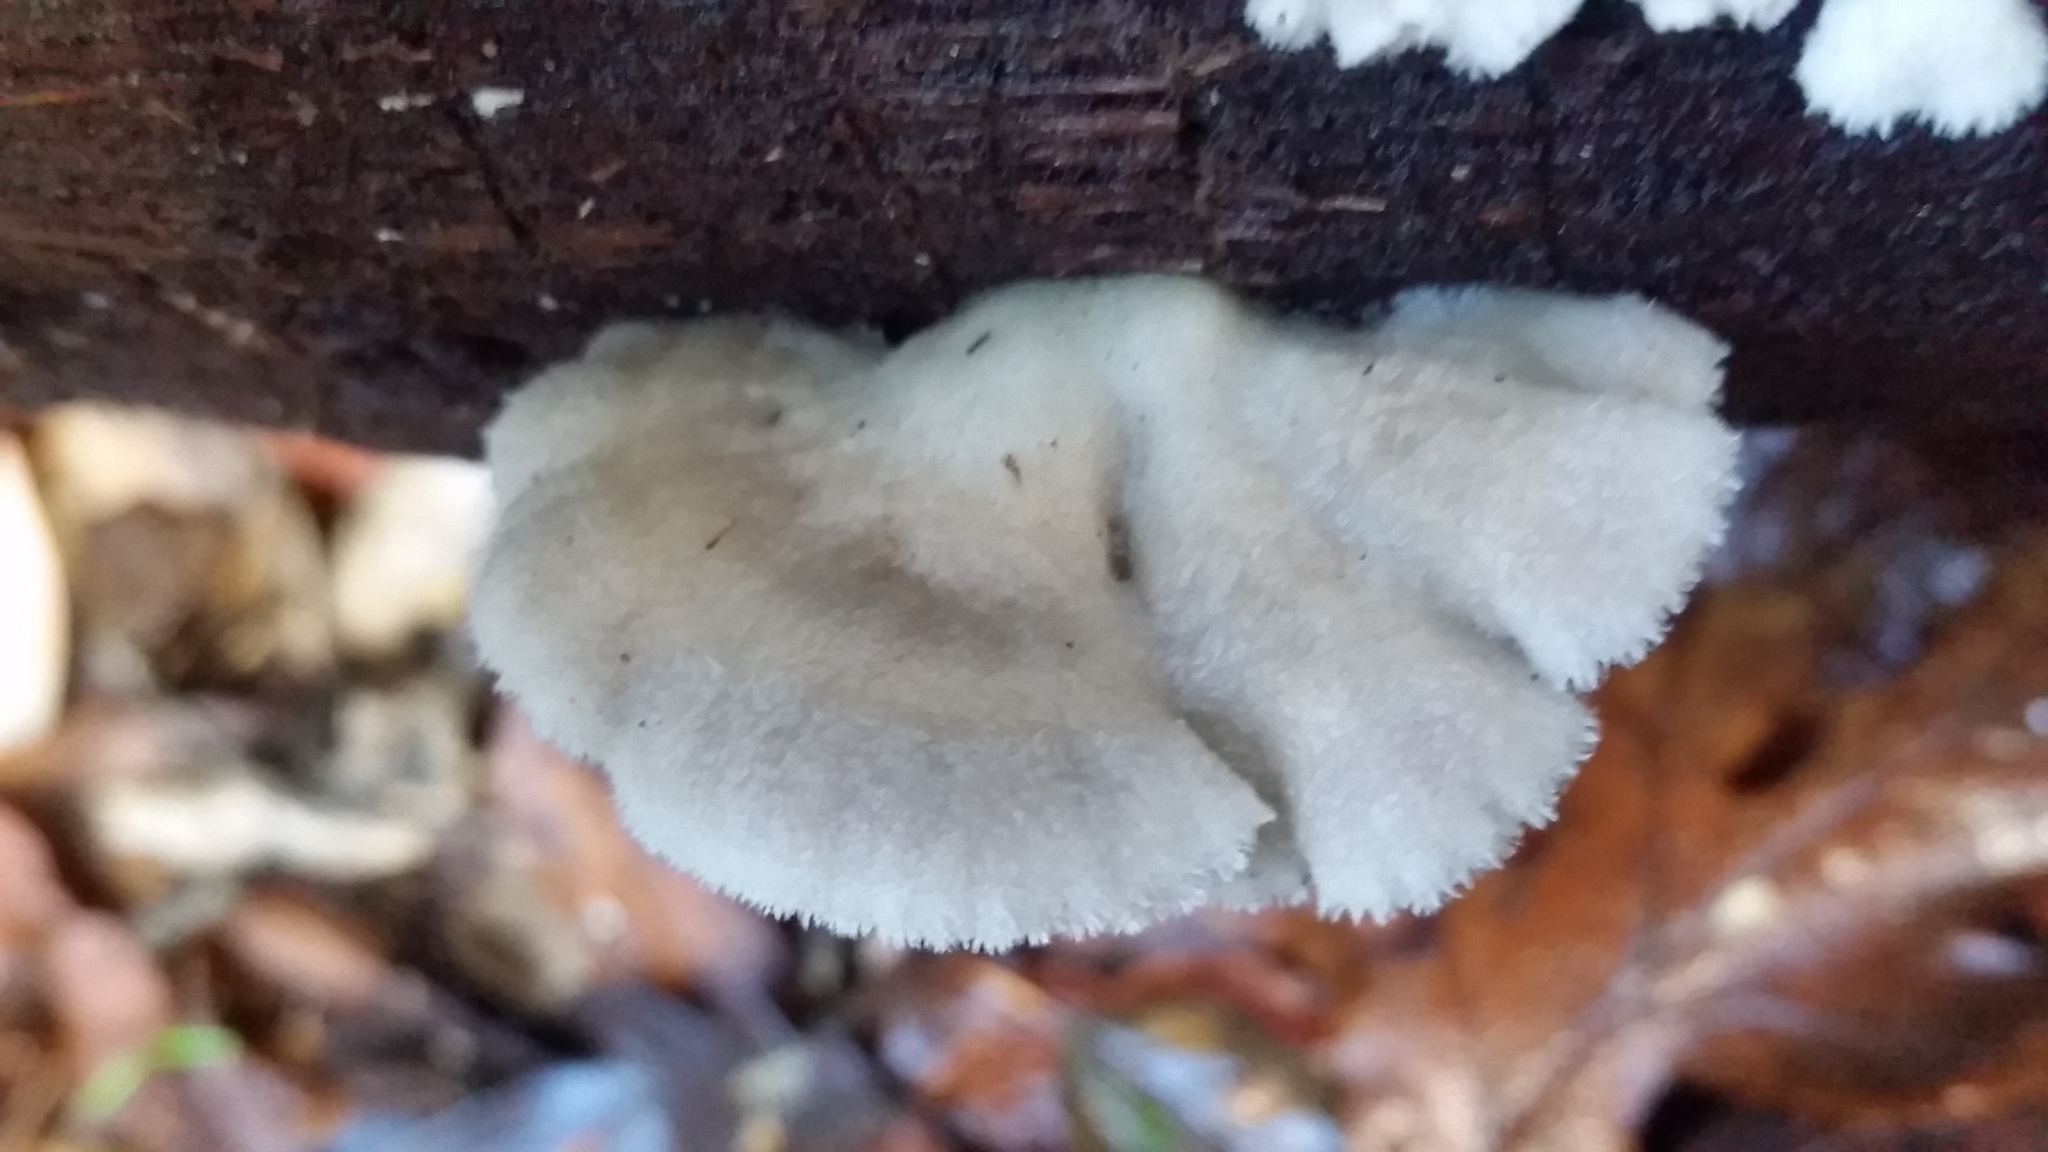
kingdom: Fungi
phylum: Basidiomycota
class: Agaricomycetes
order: Agaricales
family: Schizophyllaceae
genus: Schizophyllum
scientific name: Schizophyllum commune
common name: Common porecrust
